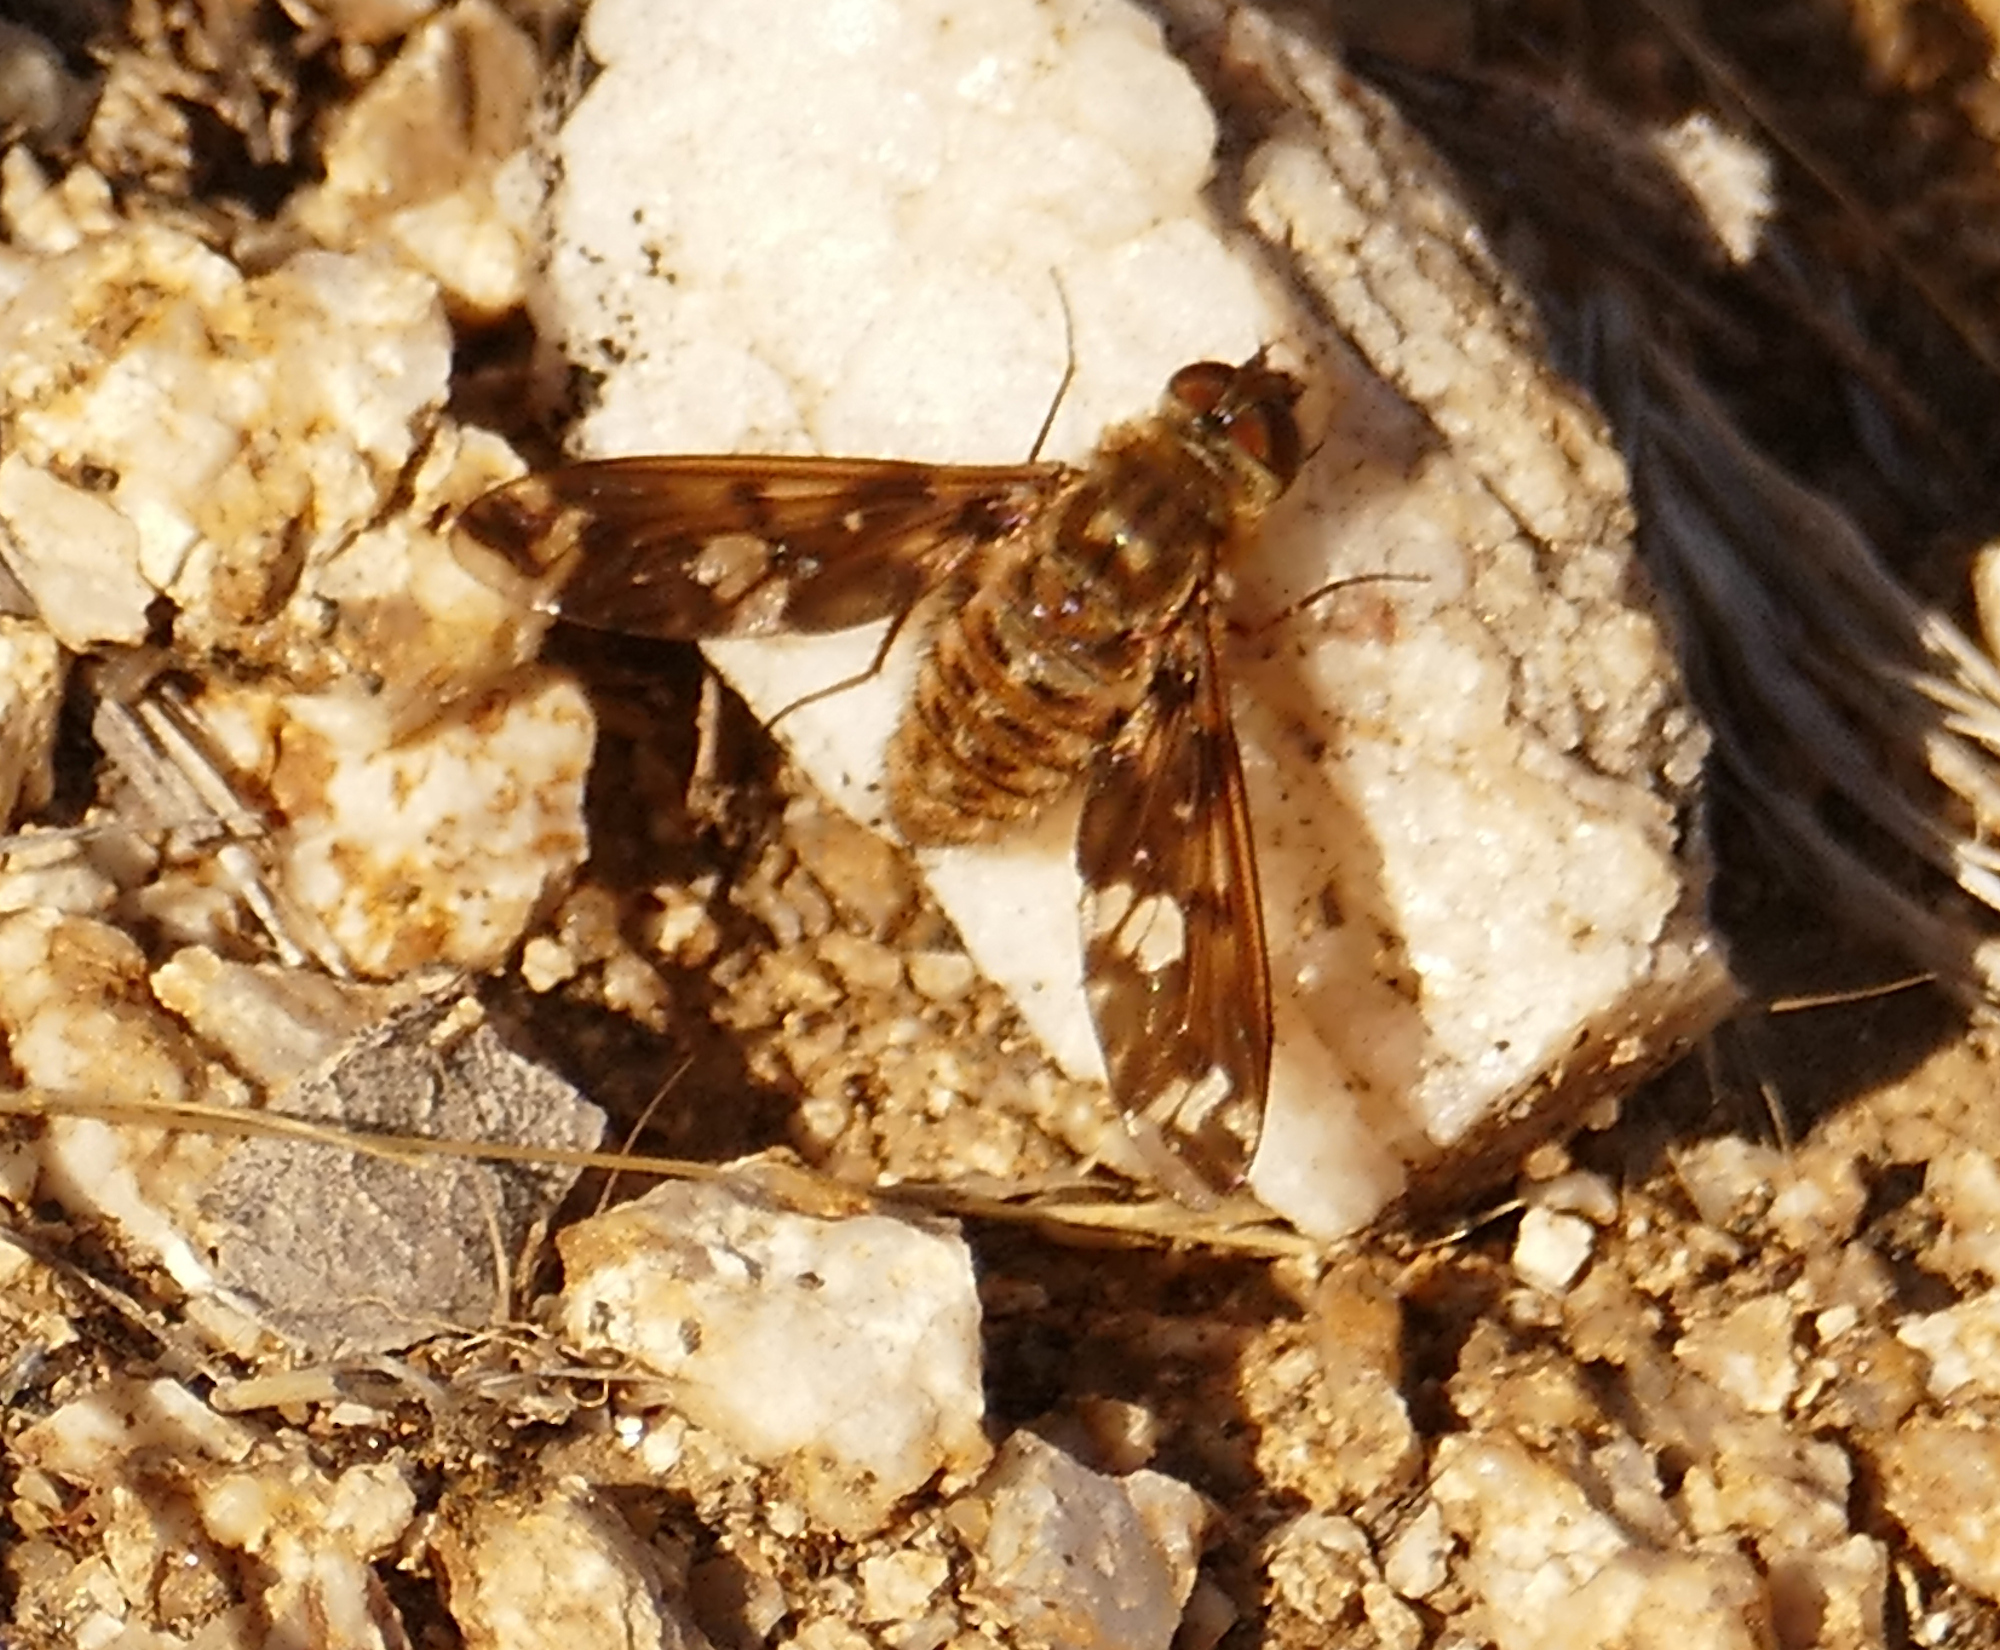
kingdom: Animalia
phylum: Arthropoda
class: Insecta
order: Diptera
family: Bombyliidae
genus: Poecilanthrax
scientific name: Poecilanthrax poecilogaster
